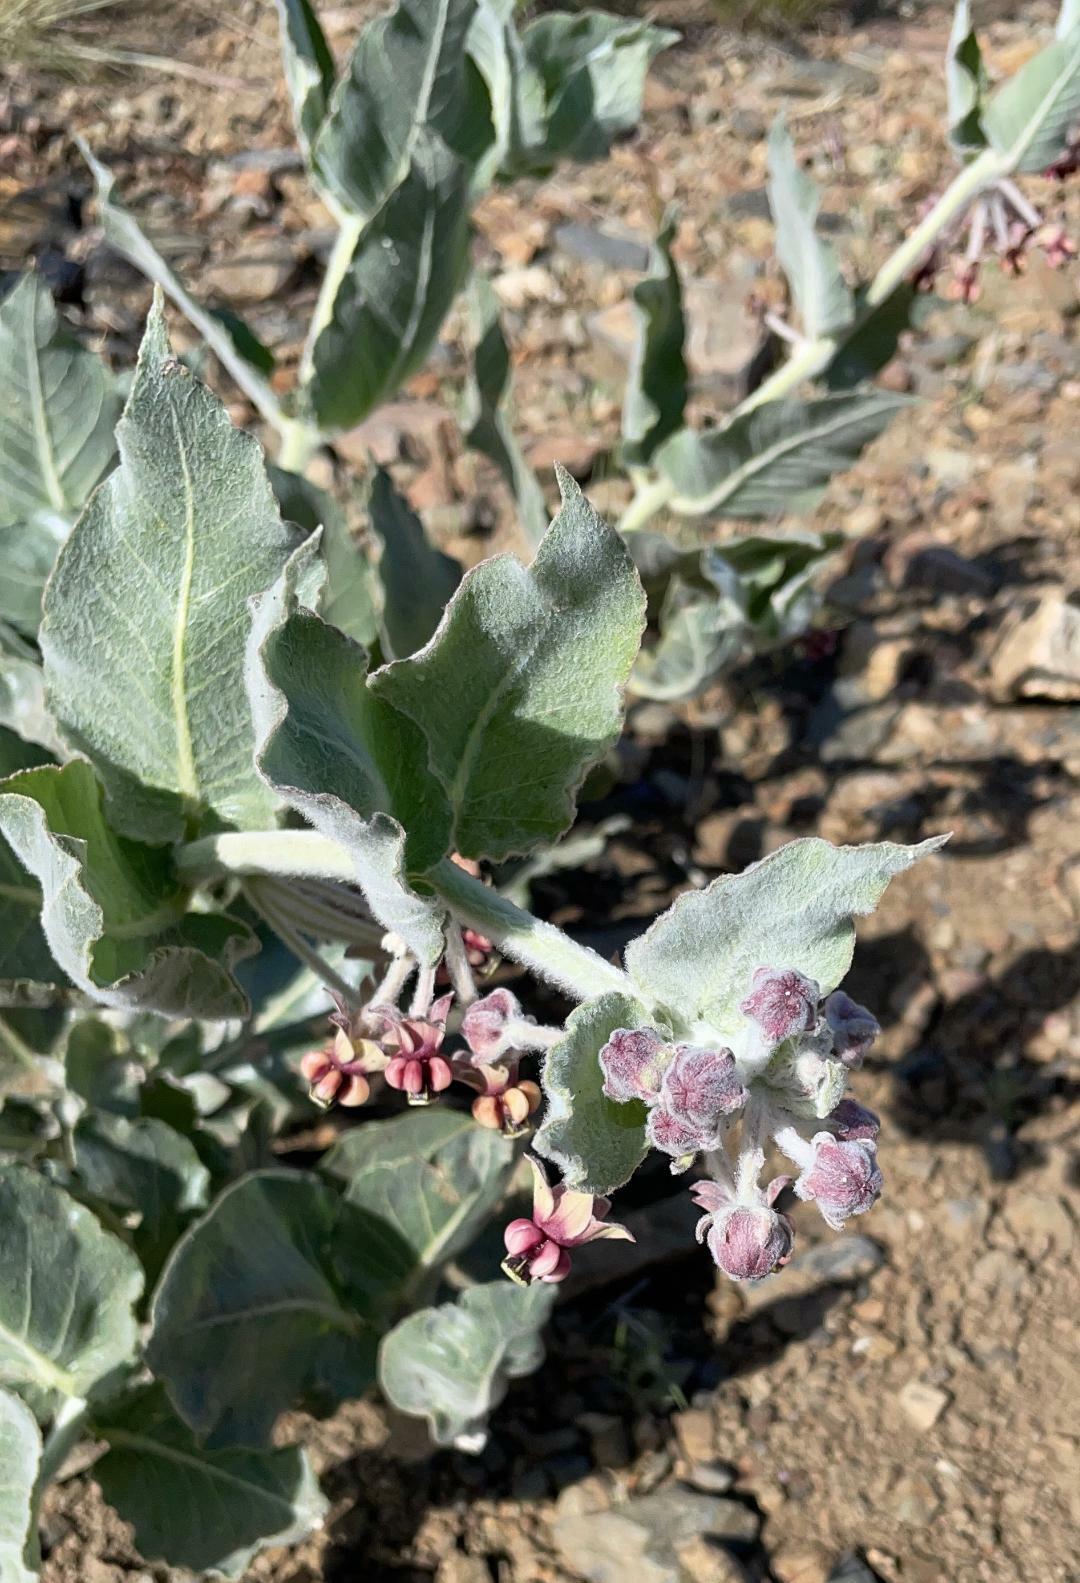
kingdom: Plantae
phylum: Tracheophyta
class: Magnoliopsida
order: Gentianales
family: Apocynaceae
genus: Asclepias
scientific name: Asclepias californica
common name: California milkweed
